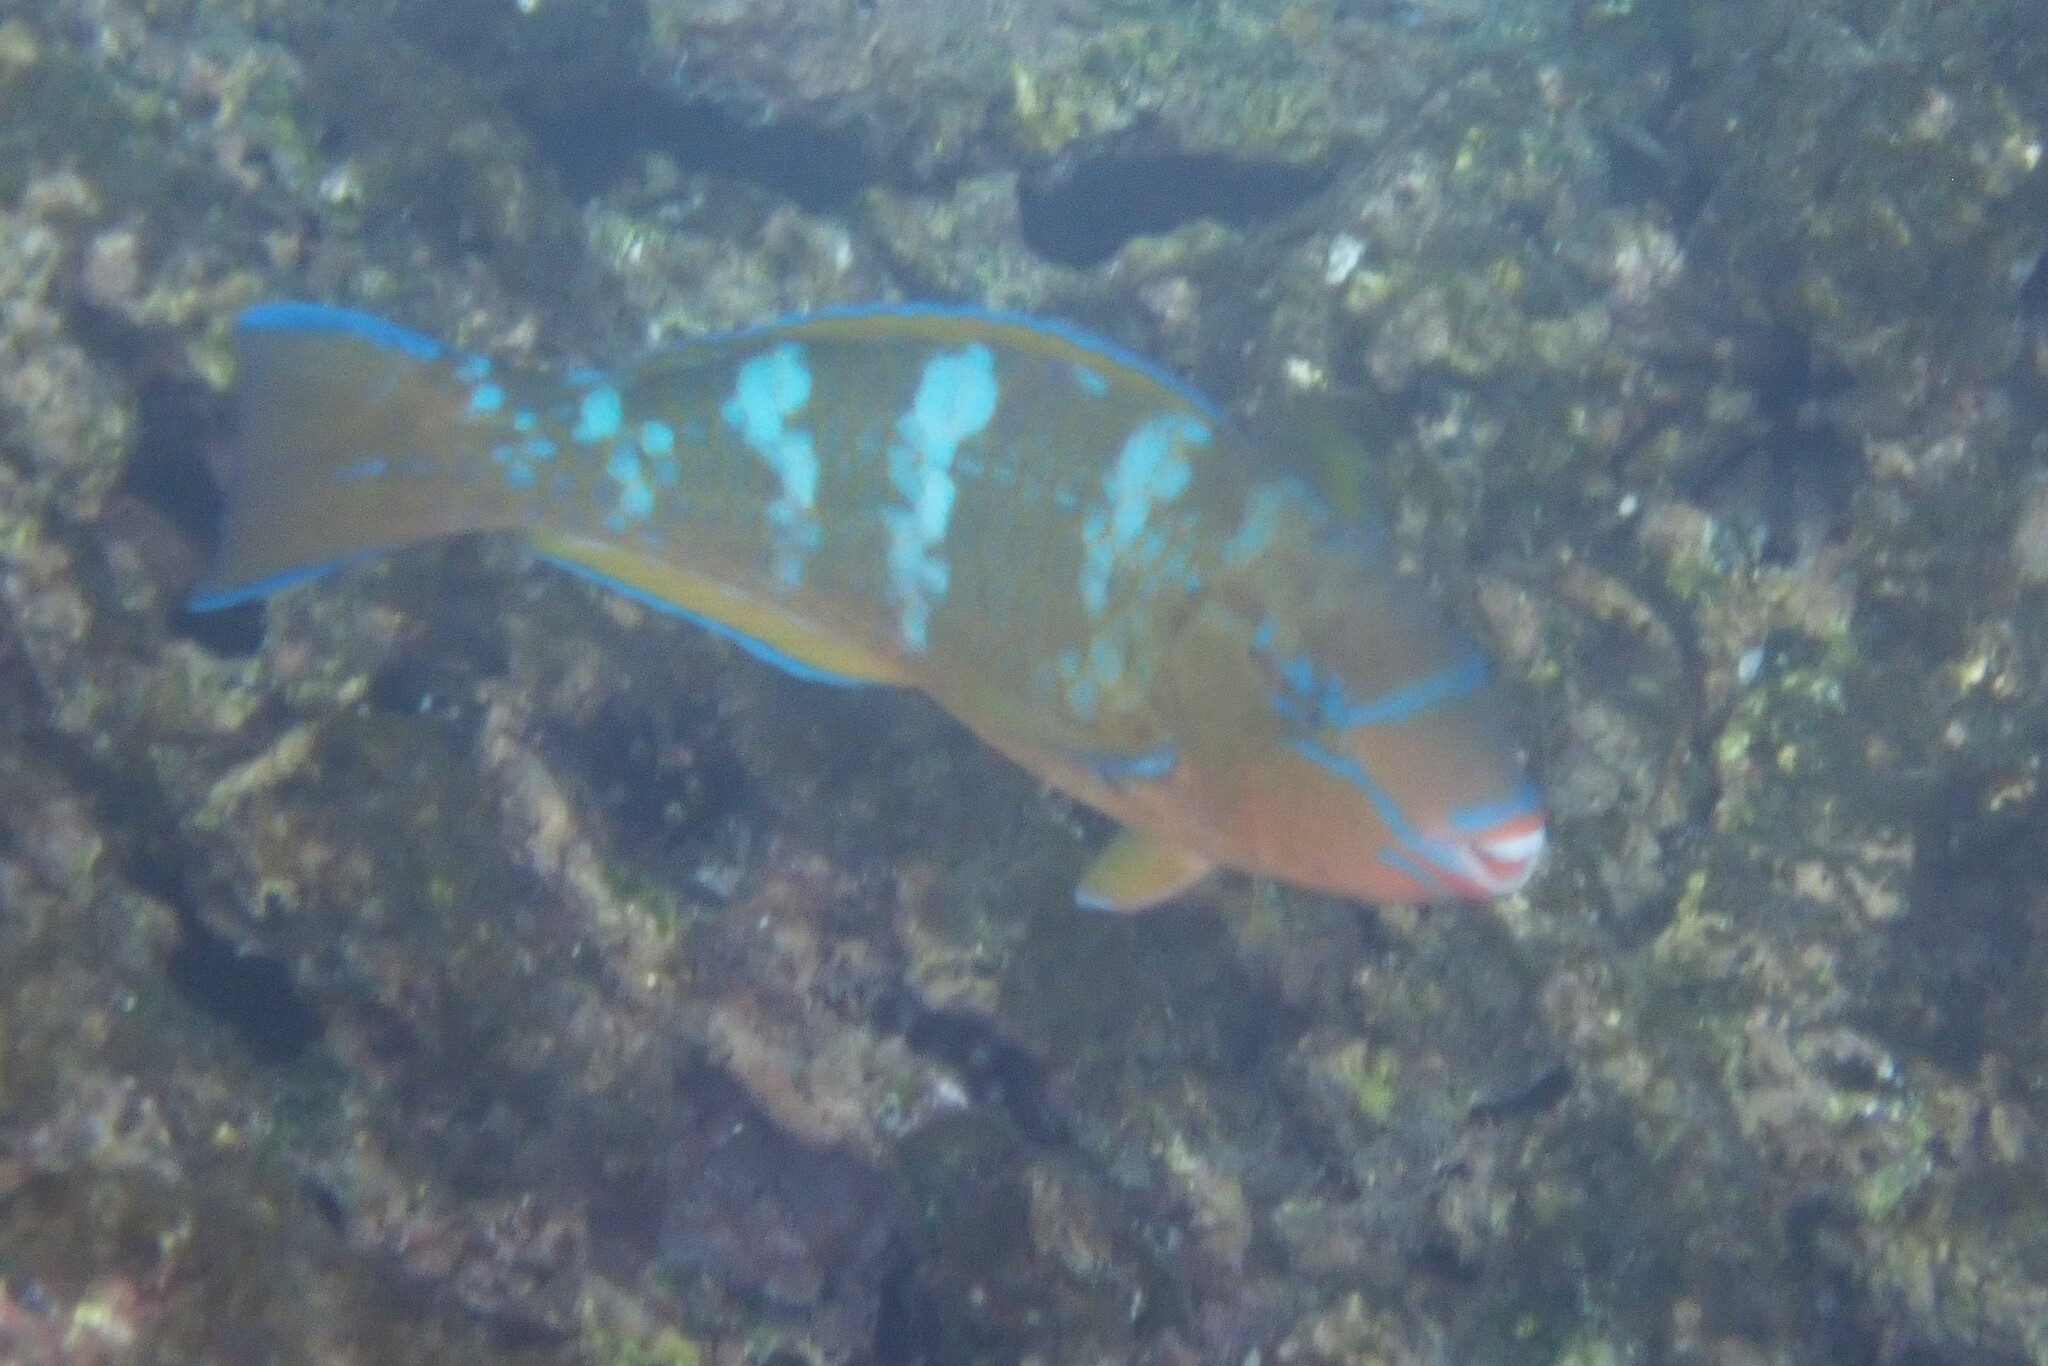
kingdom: Animalia
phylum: Chordata
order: Perciformes
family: Scaridae
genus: Scarus
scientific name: Scarus ghobban
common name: Blue-barred parrotfish
